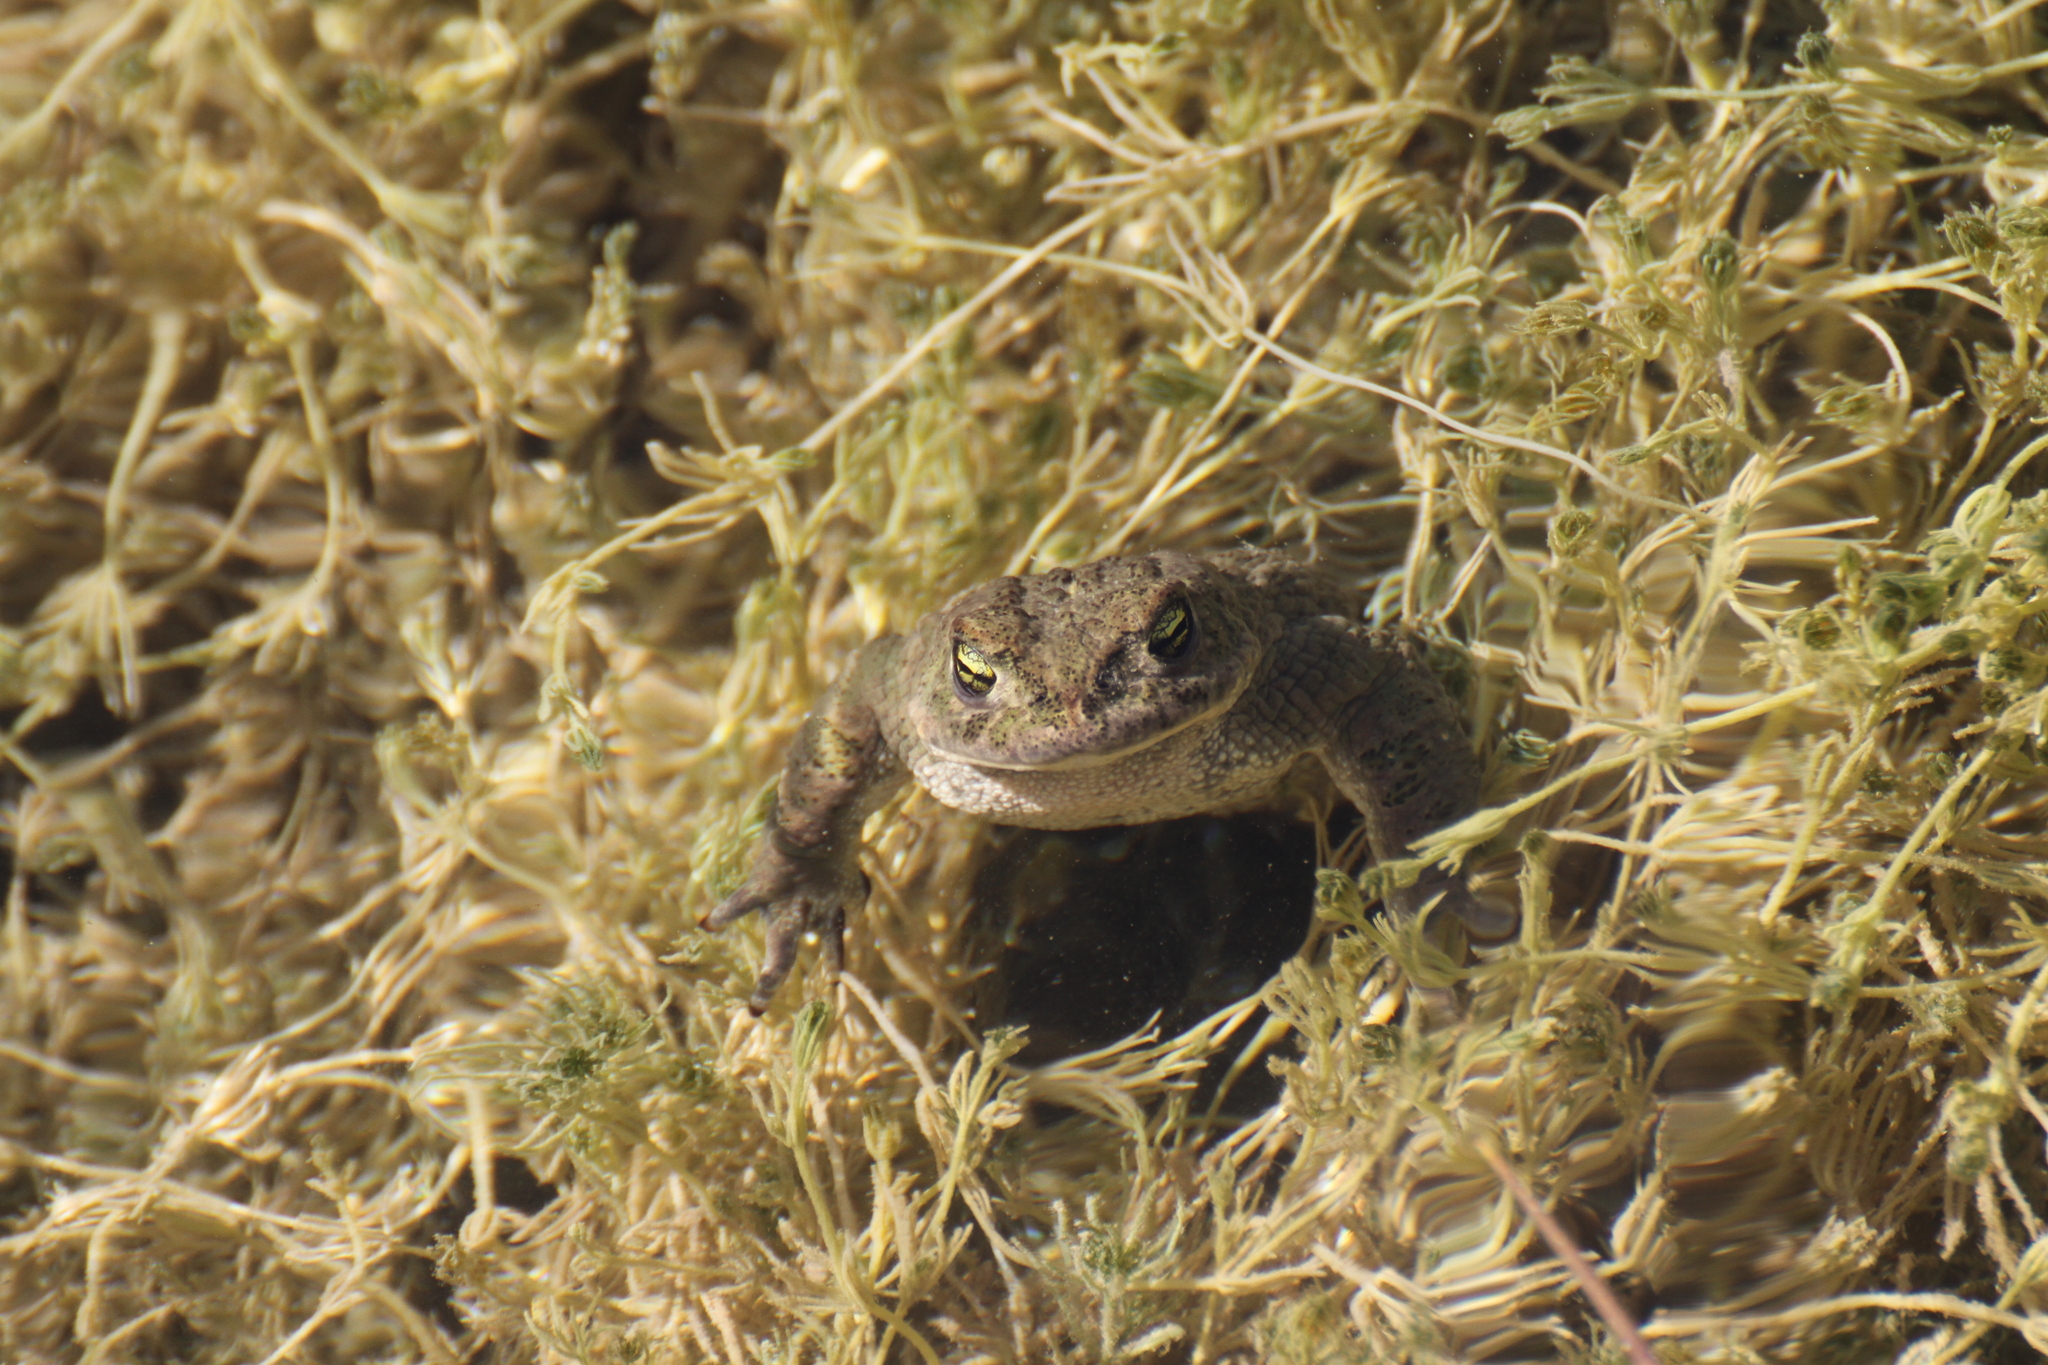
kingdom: Animalia
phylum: Chordata
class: Amphibia
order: Anura
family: Bufonidae
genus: Epidalea
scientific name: Epidalea calamita
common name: Natterjack toad
